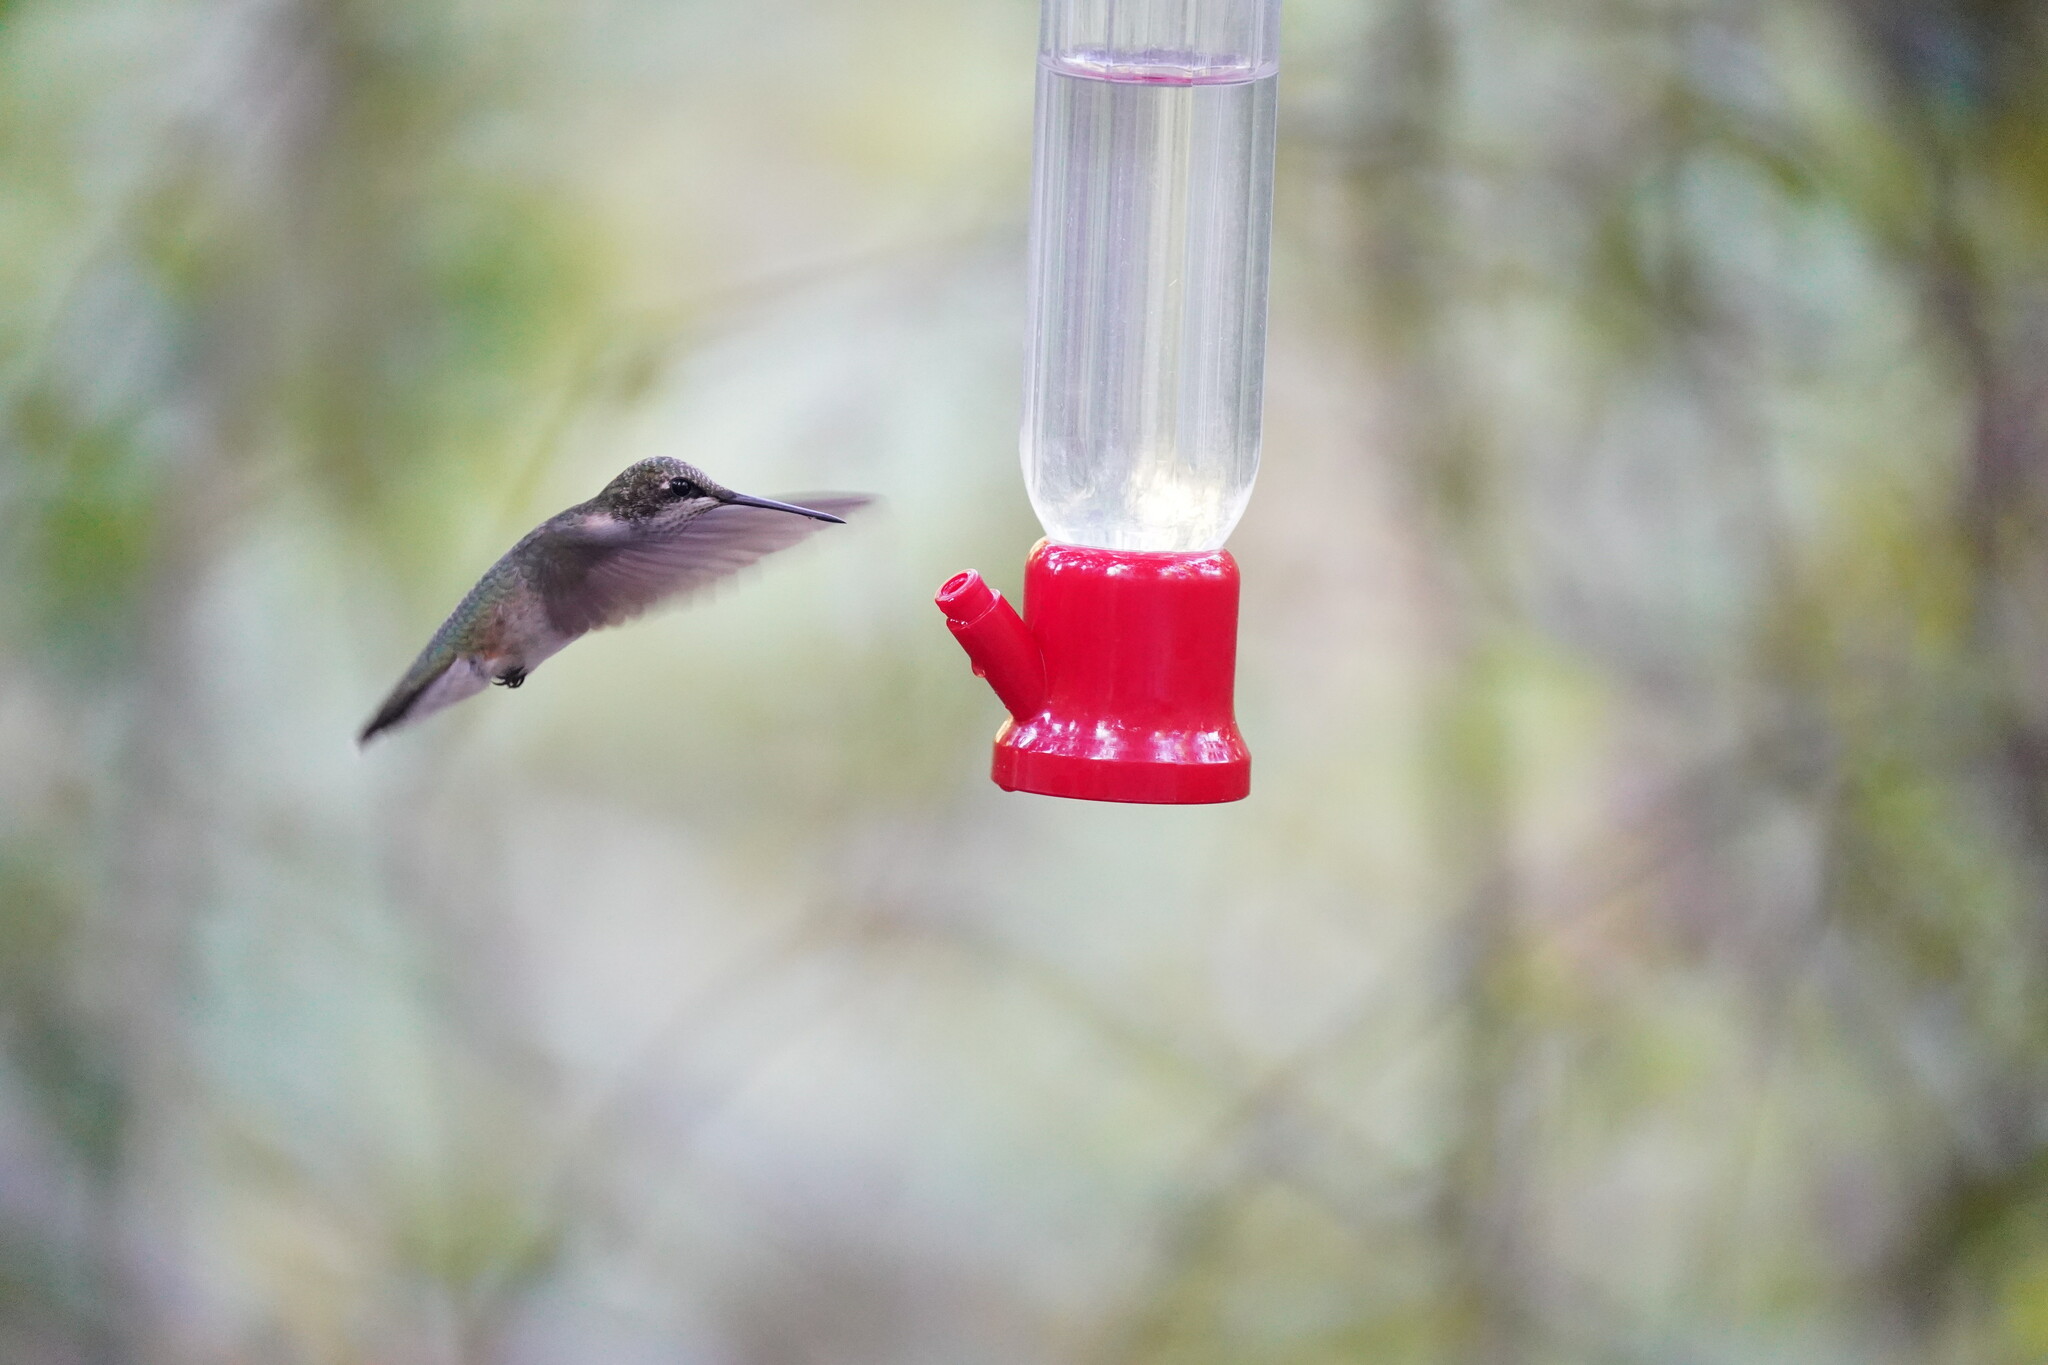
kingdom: Animalia
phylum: Chordata
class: Aves
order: Apodiformes
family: Trochilidae
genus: Archilochus
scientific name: Archilochus colubris
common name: Ruby-throated hummingbird
